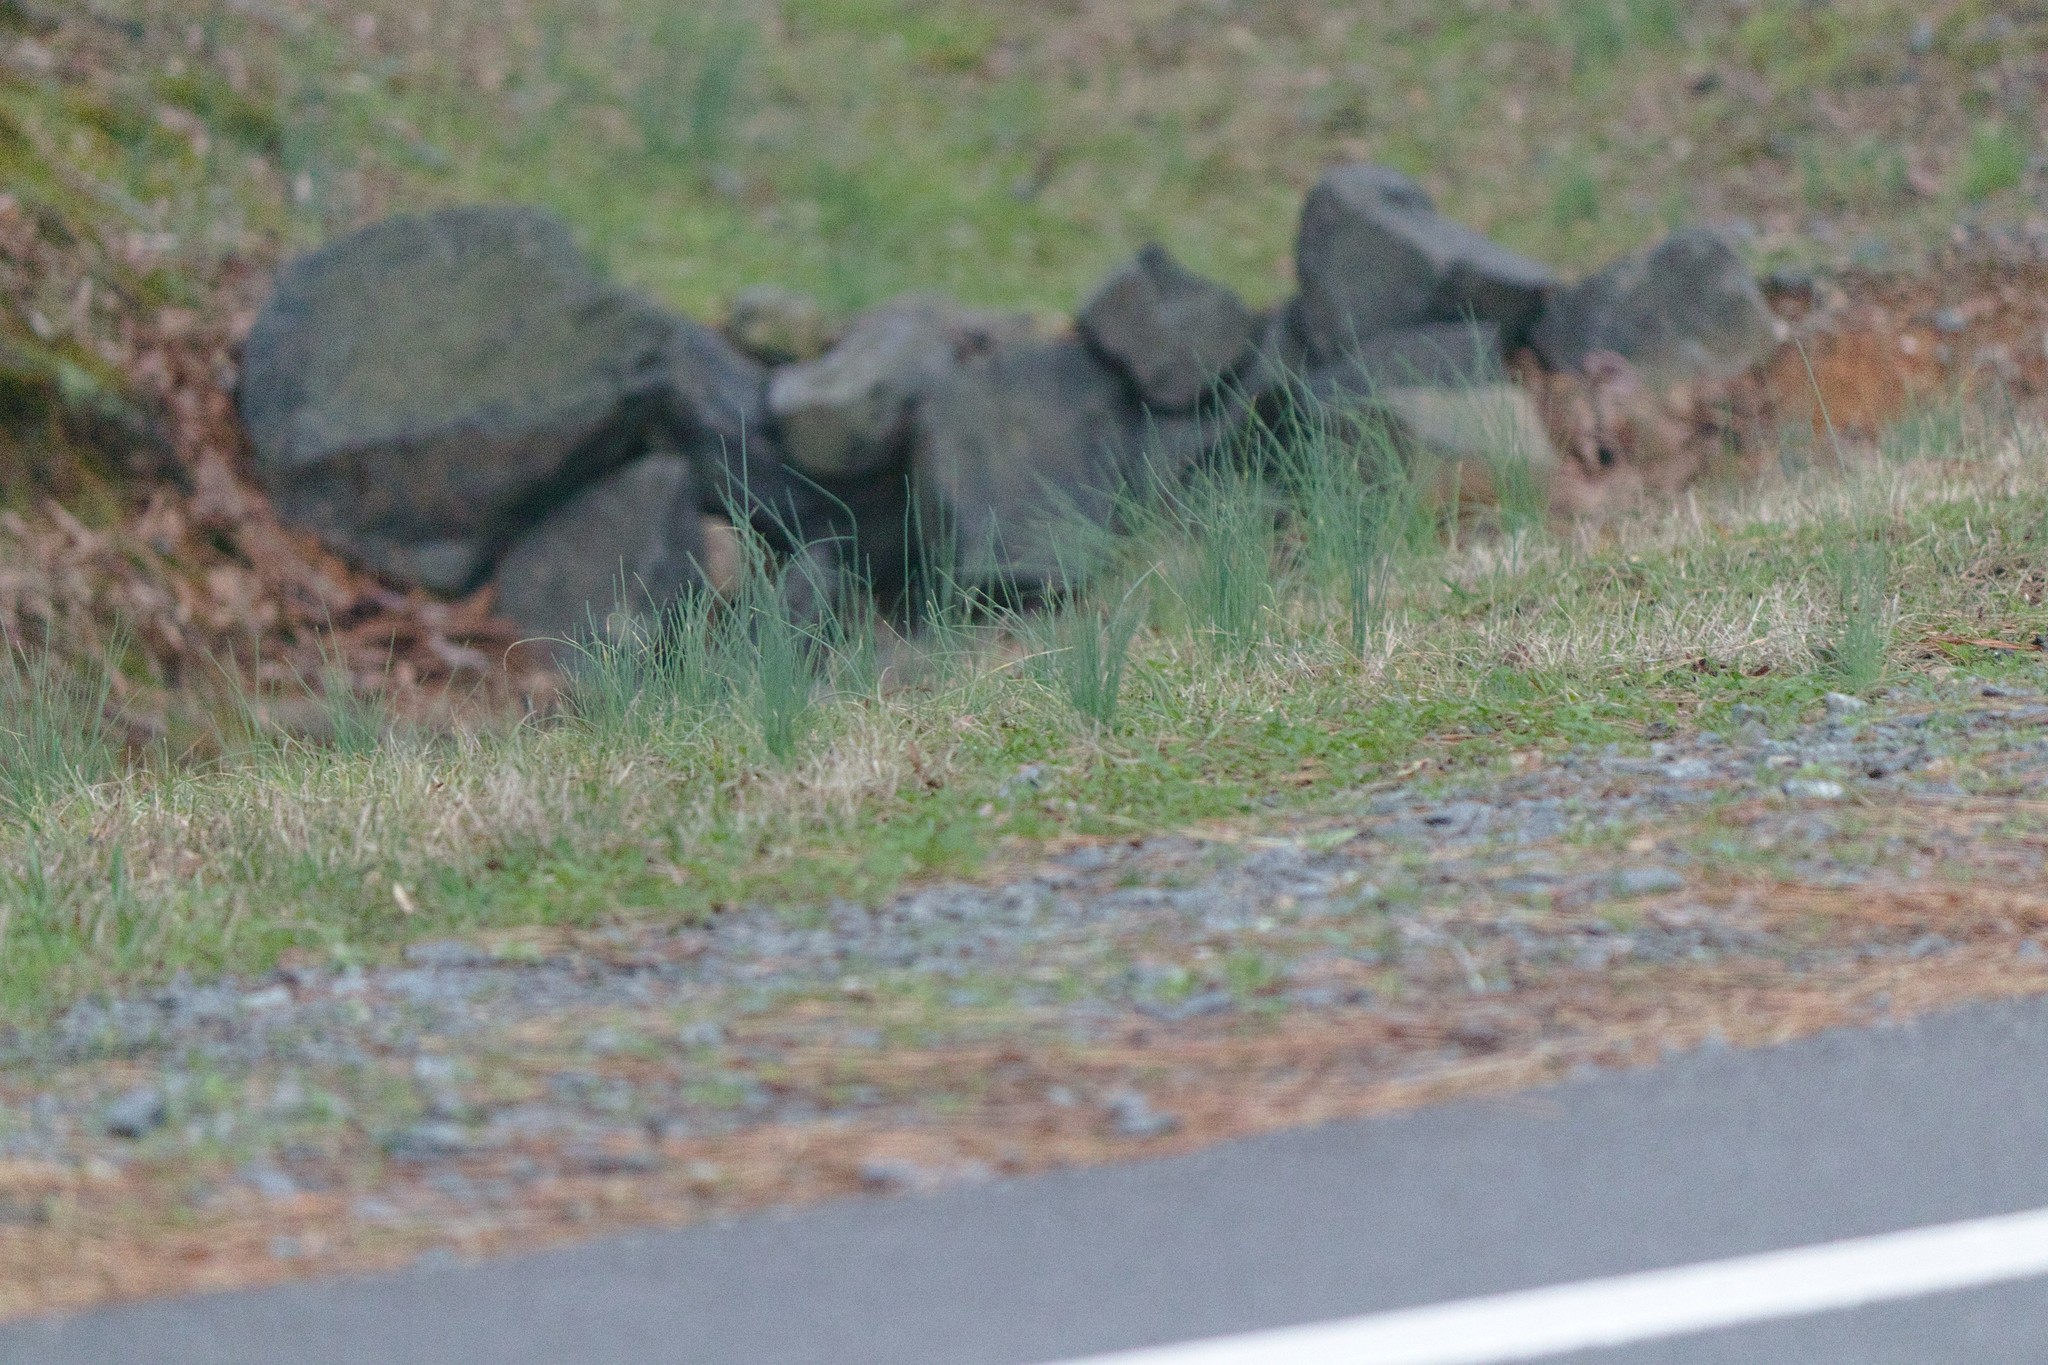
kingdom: Plantae
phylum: Tracheophyta
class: Liliopsida
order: Asparagales
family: Amaryllidaceae
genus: Allium
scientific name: Allium vineale
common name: Crow garlic
